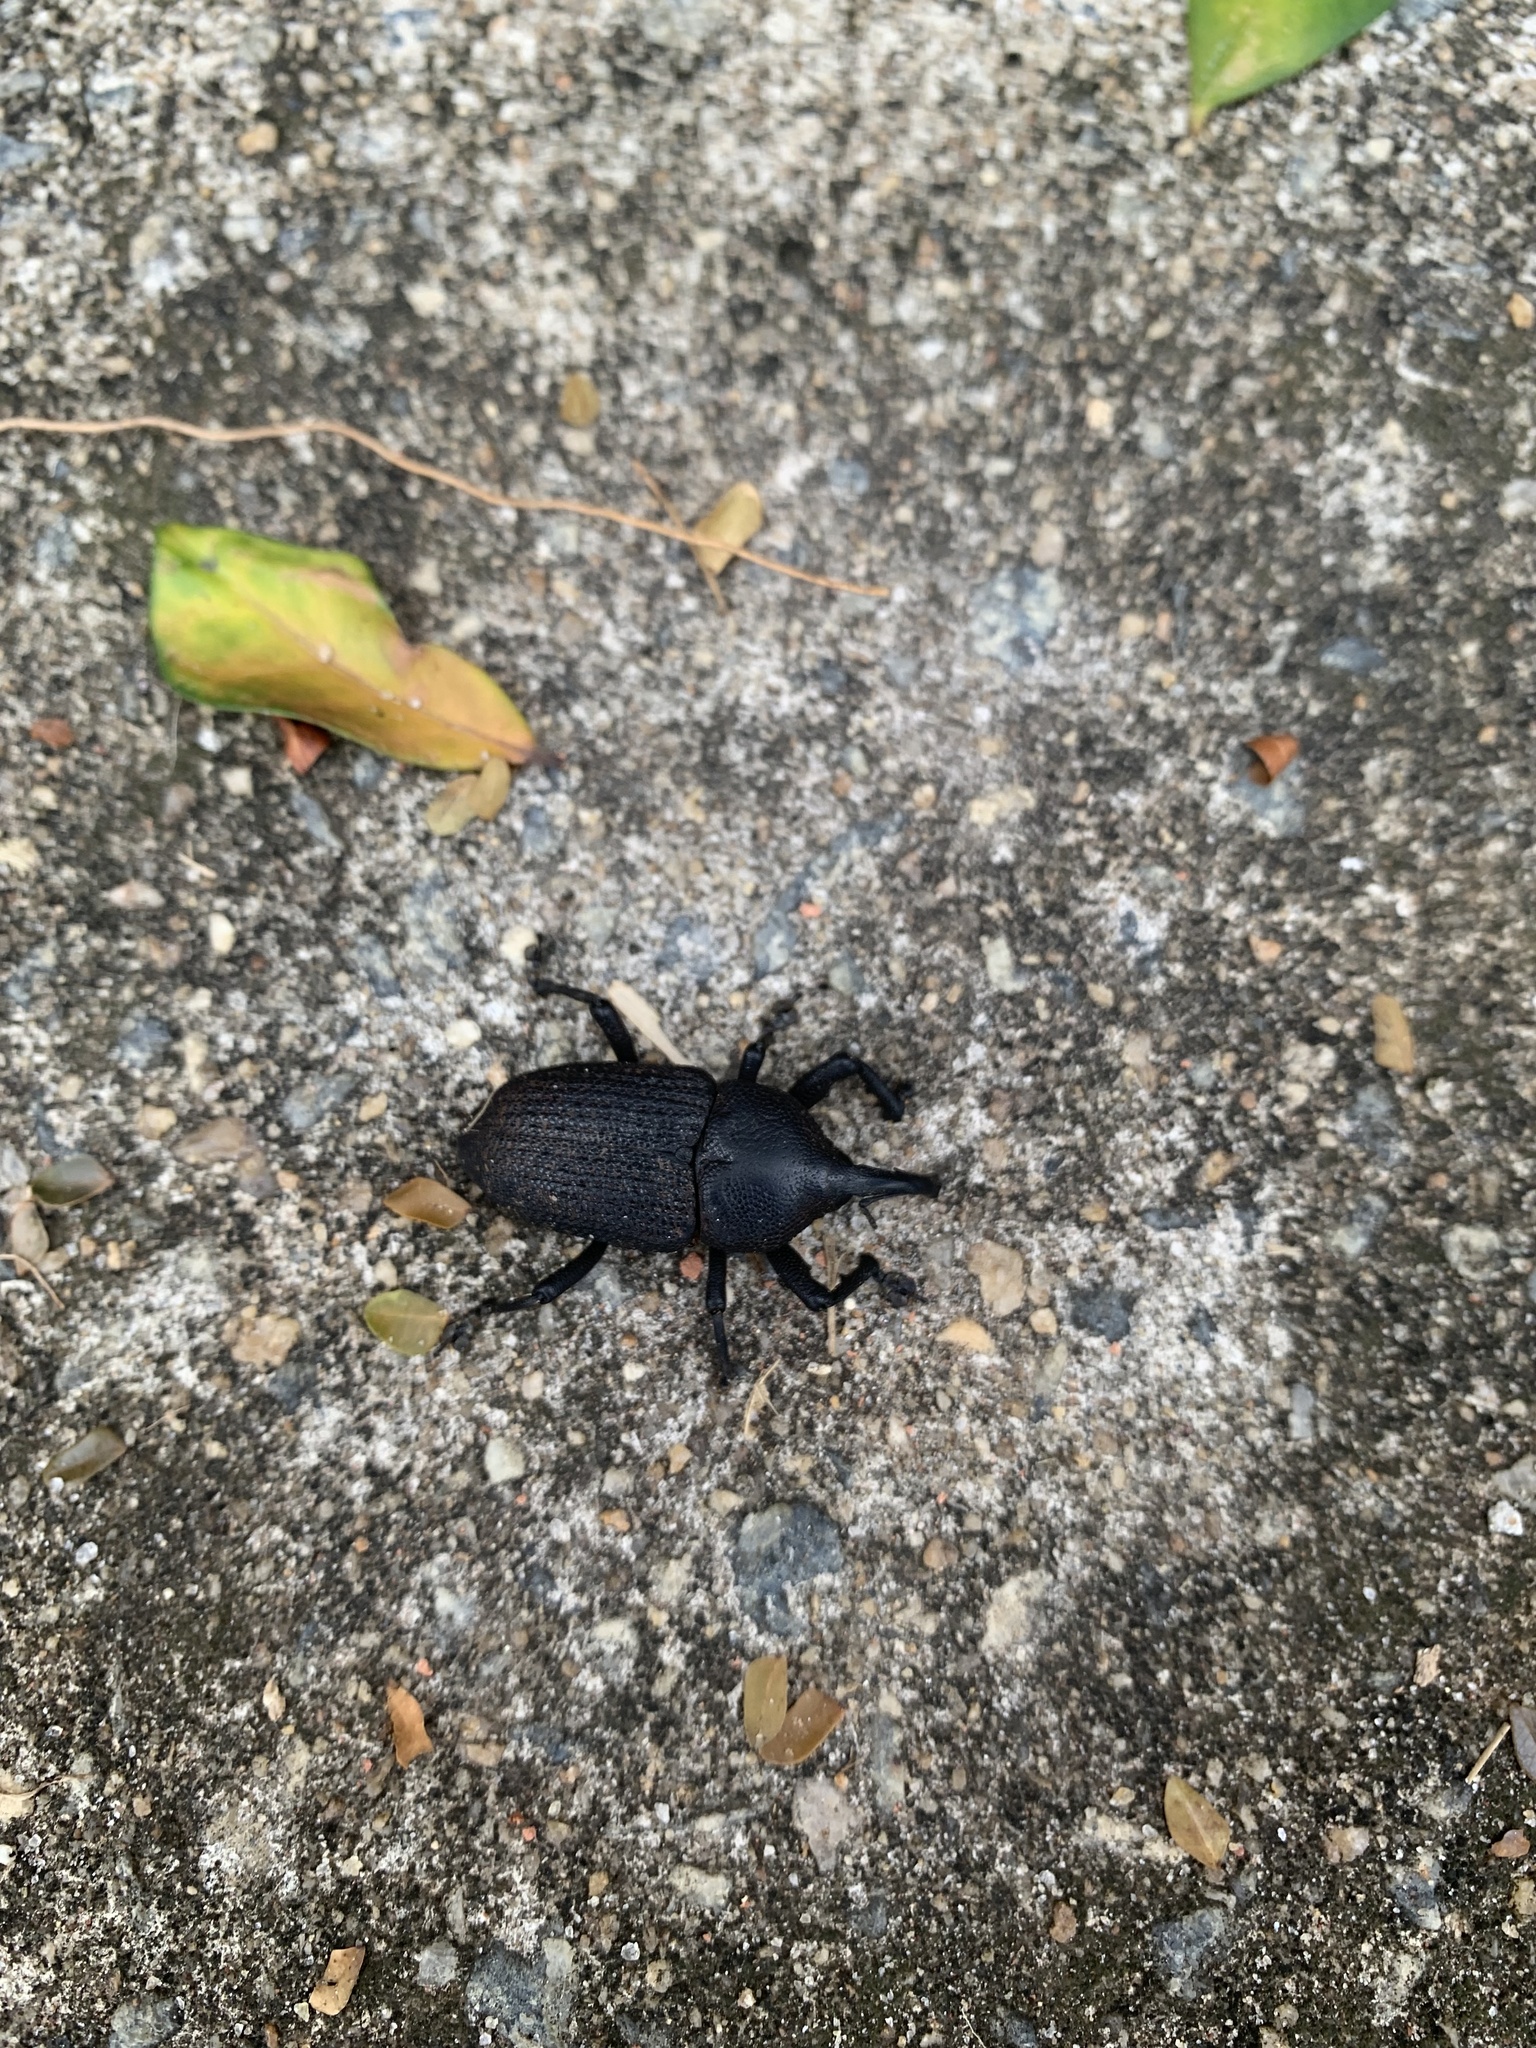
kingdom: Animalia
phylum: Arthropoda
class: Insecta
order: Coleoptera
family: Curculionidae
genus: Homalinotus
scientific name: Homalinotus coriaceus
